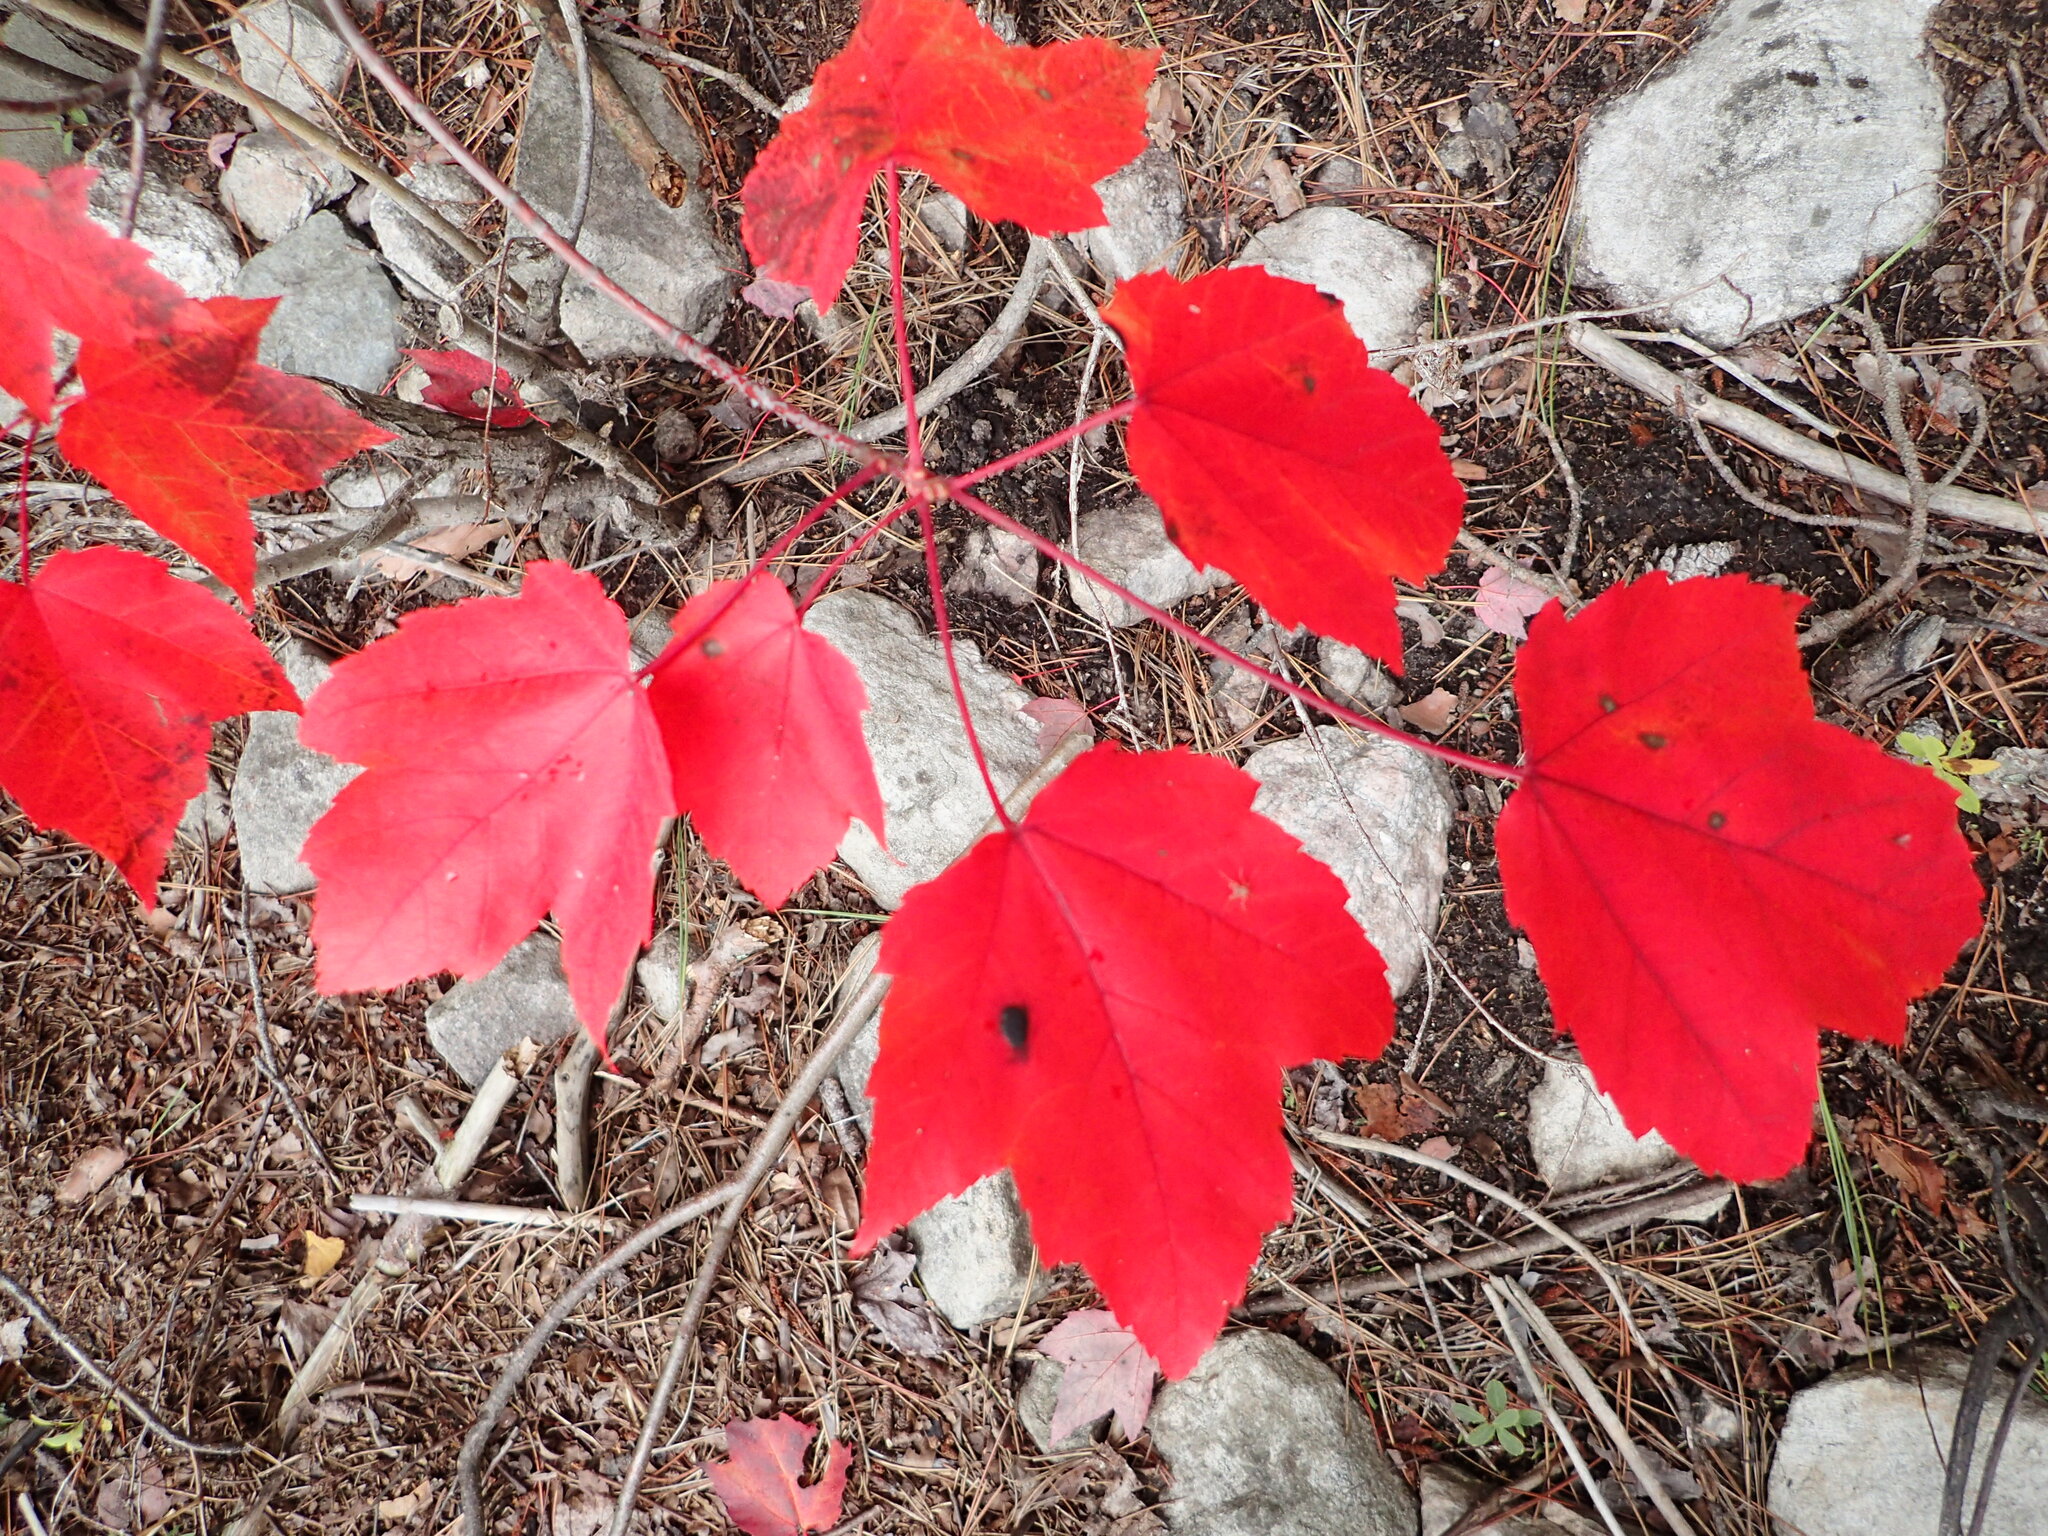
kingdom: Plantae
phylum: Tracheophyta
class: Magnoliopsida
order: Sapindales
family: Sapindaceae
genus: Acer
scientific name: Acer rubrum
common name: Red maple
